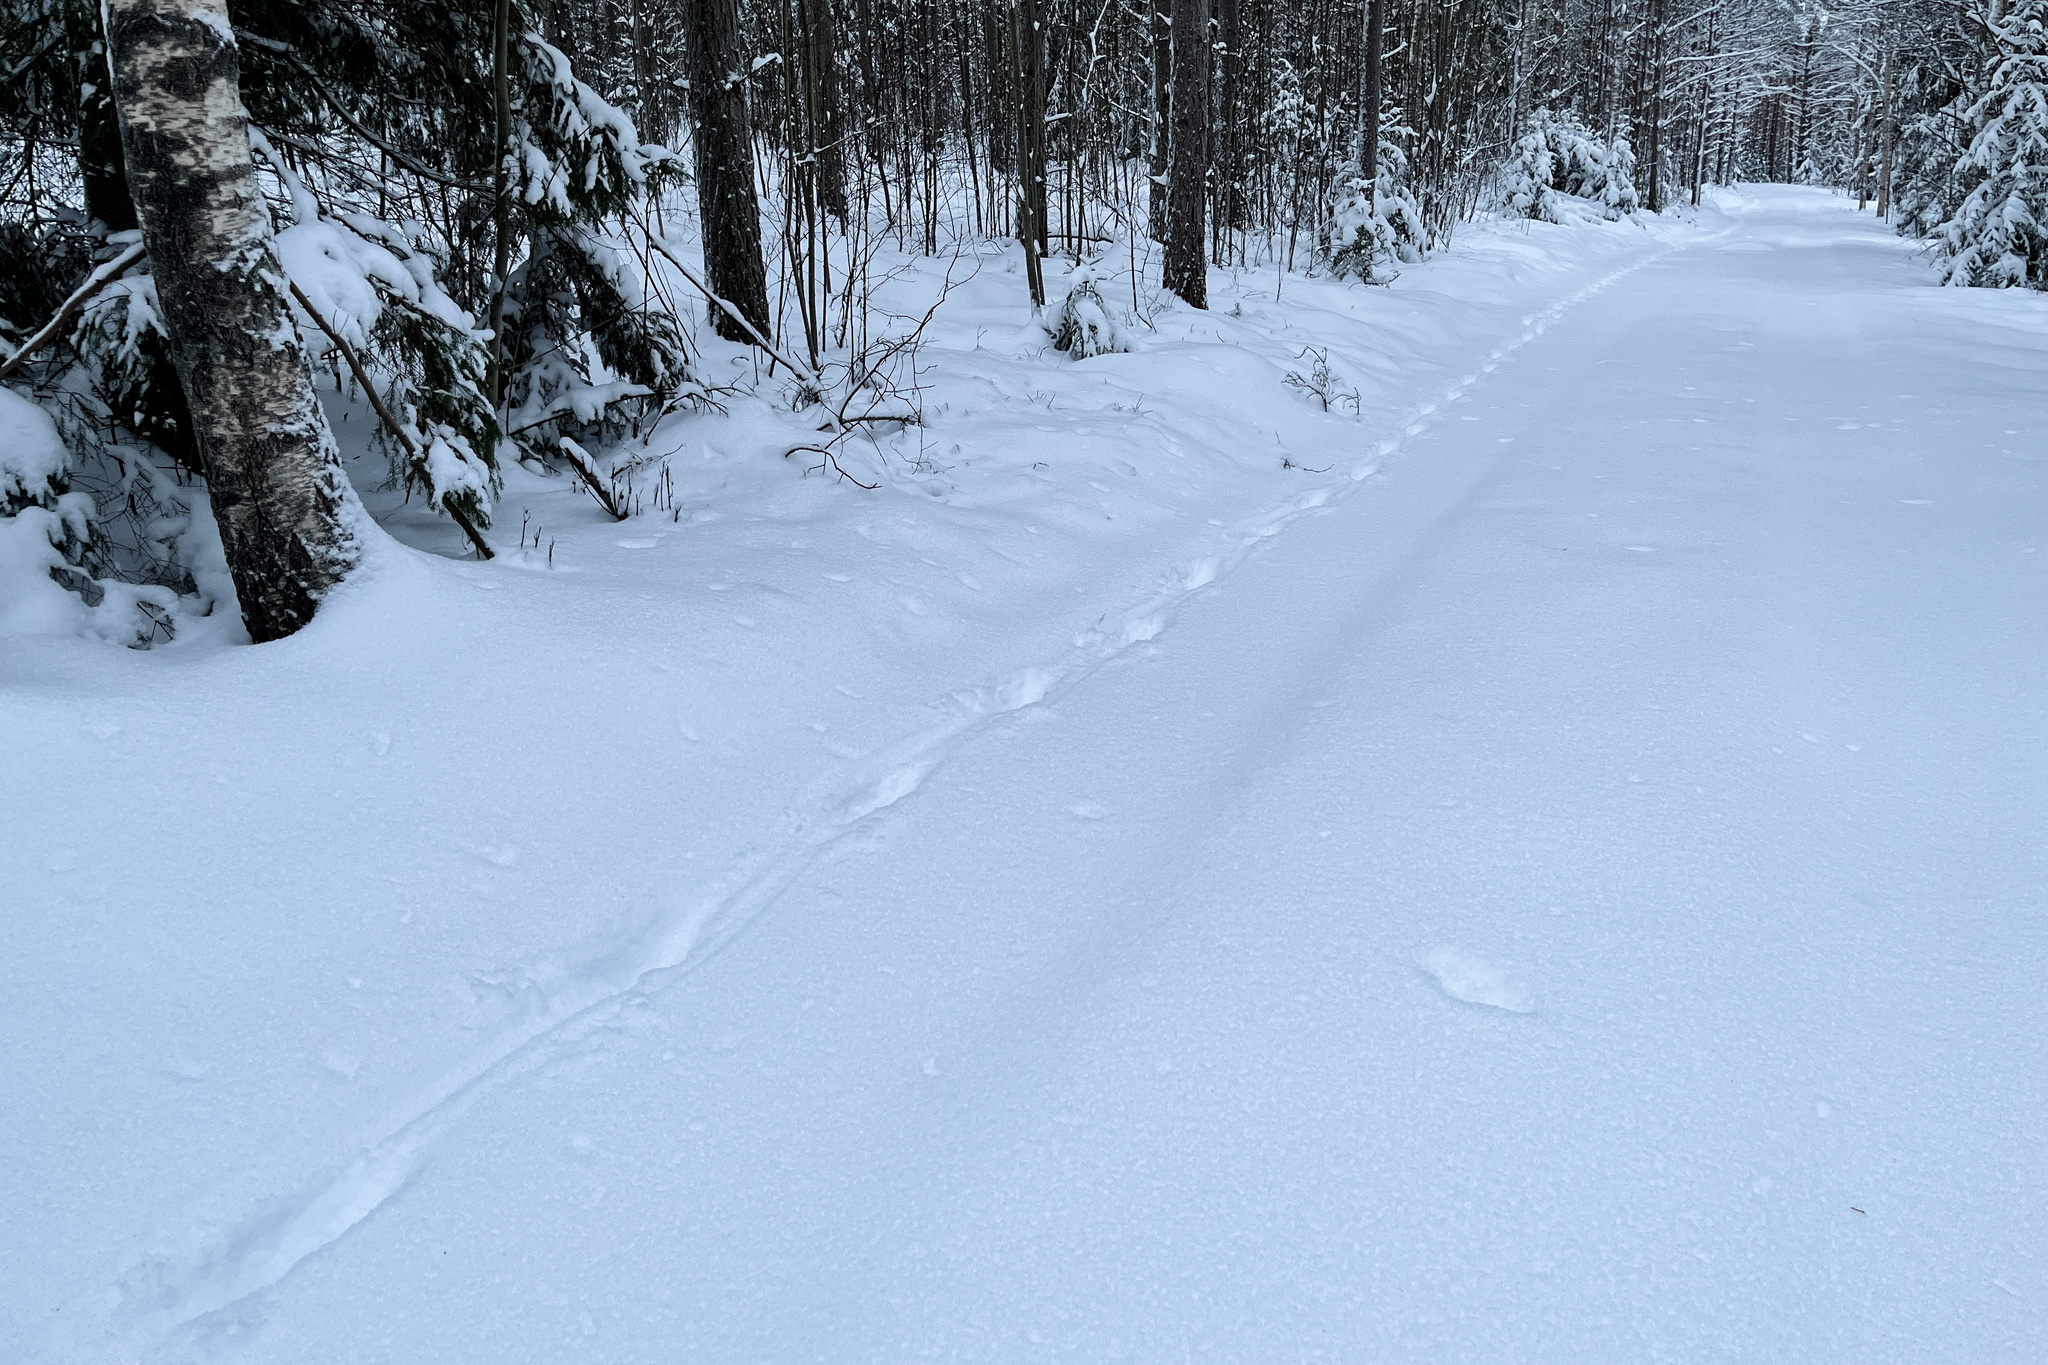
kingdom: Animalia
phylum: Chordata
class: Mammalia
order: Carnivora
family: Felidae
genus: Lynx
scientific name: Lynx lynx
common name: Eurasian lynx
